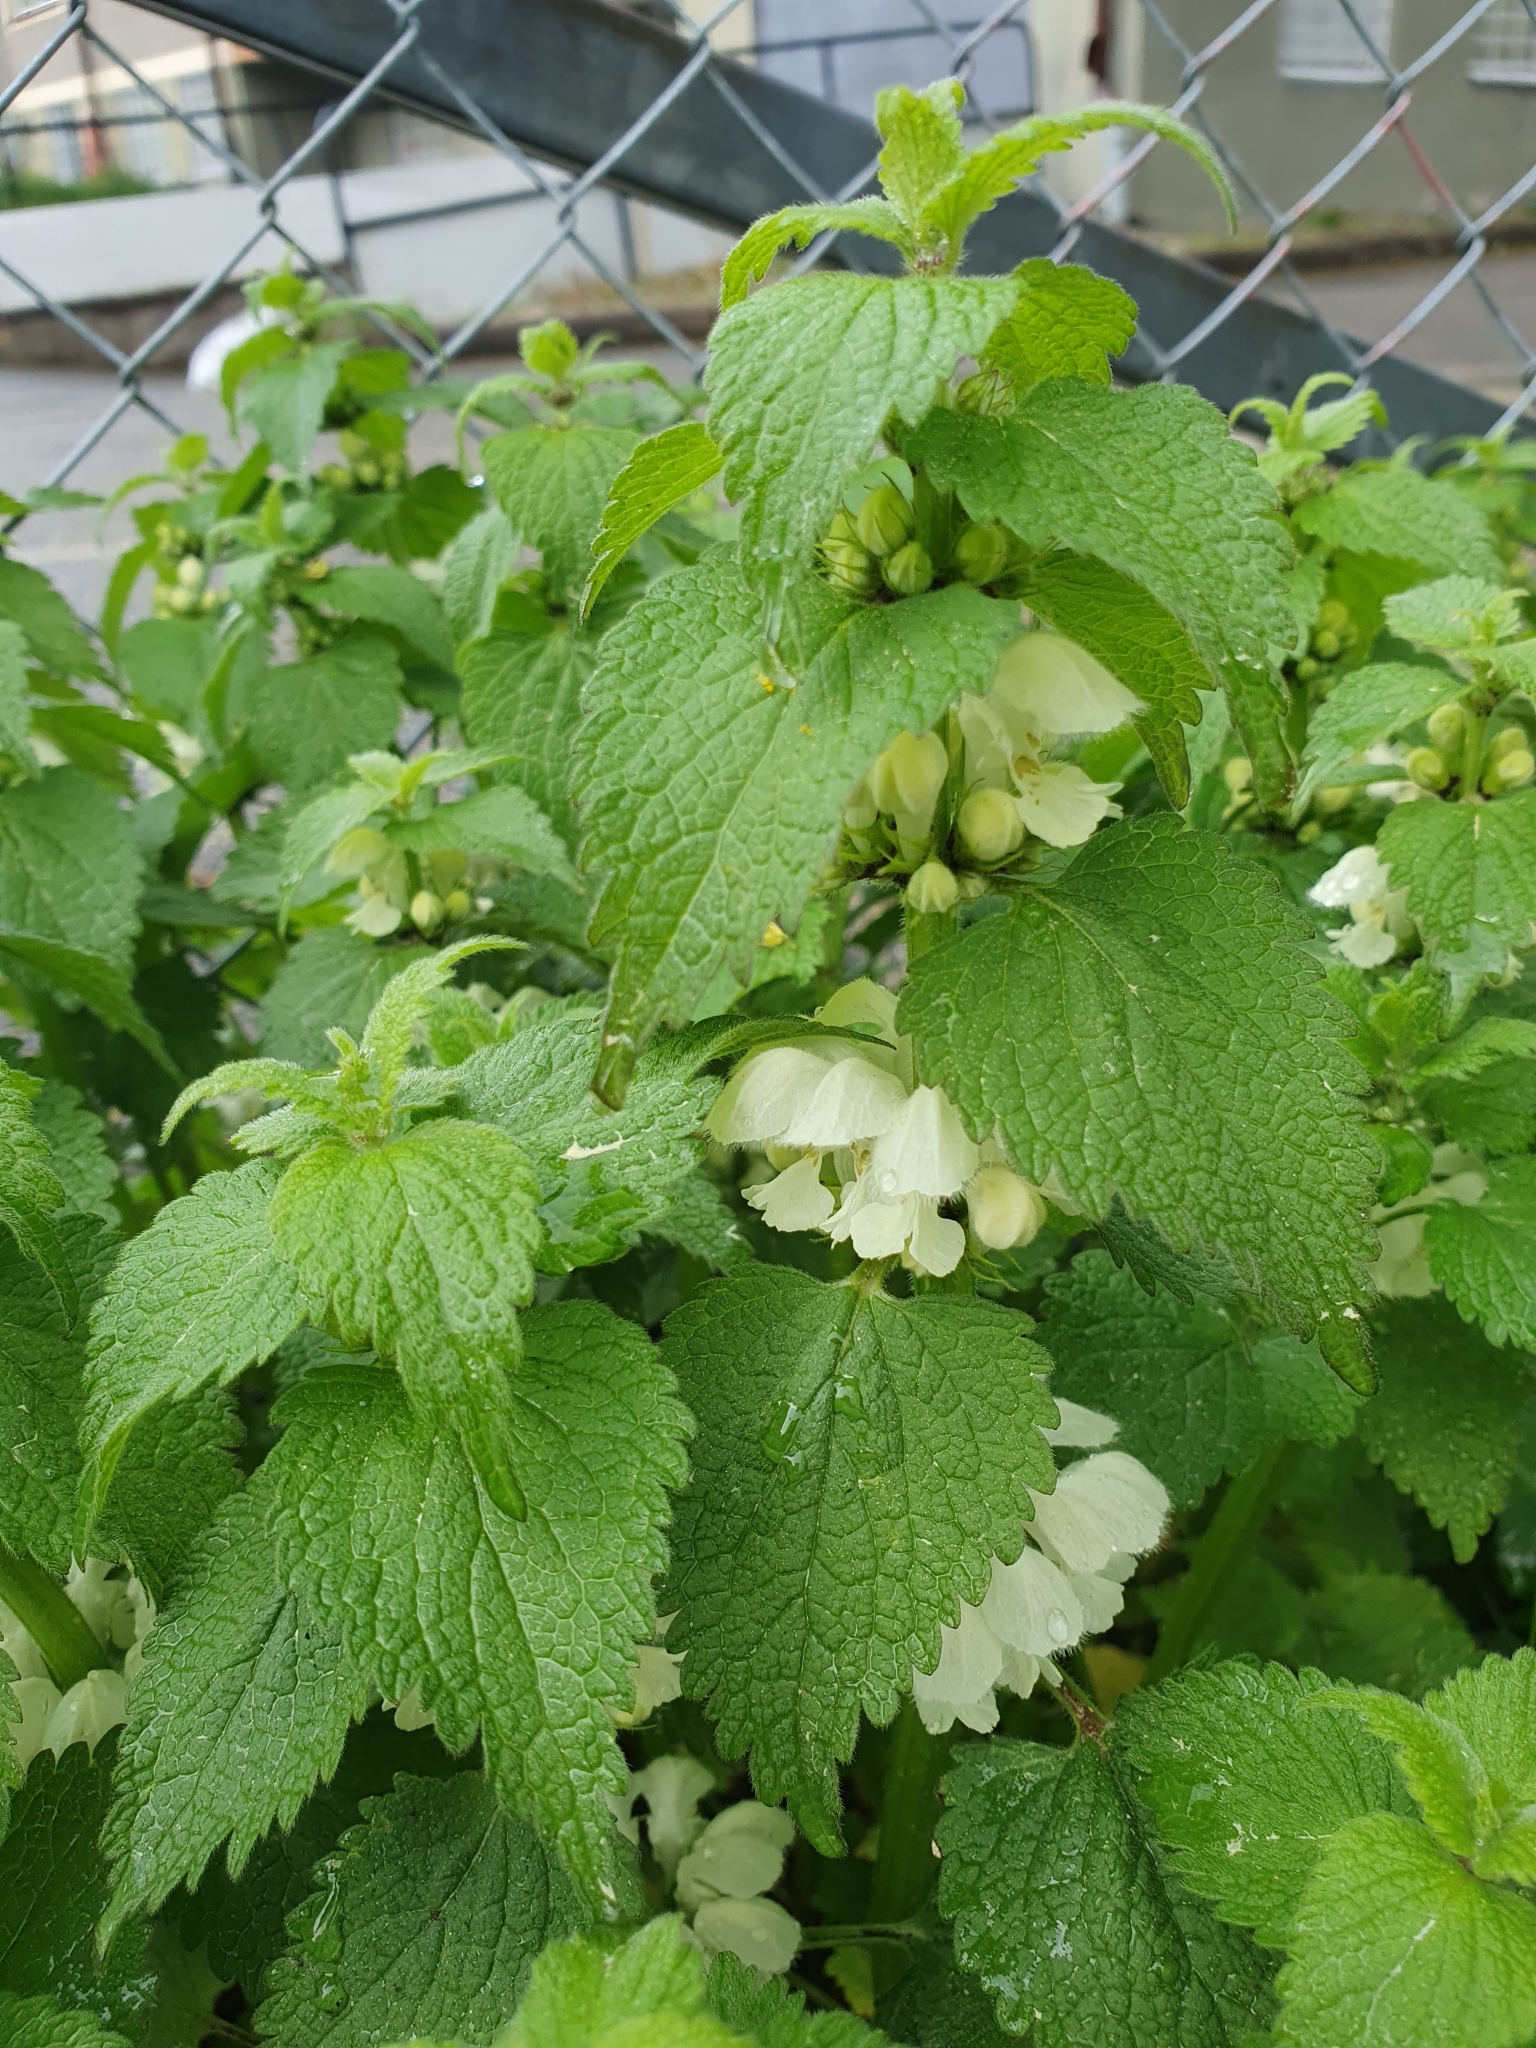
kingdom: Plantae
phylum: Tracheophyta
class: Magnoliopsida
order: Lamiales
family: Lamiaceae
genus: Lamium
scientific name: Lamium album
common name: White dead-nettle
